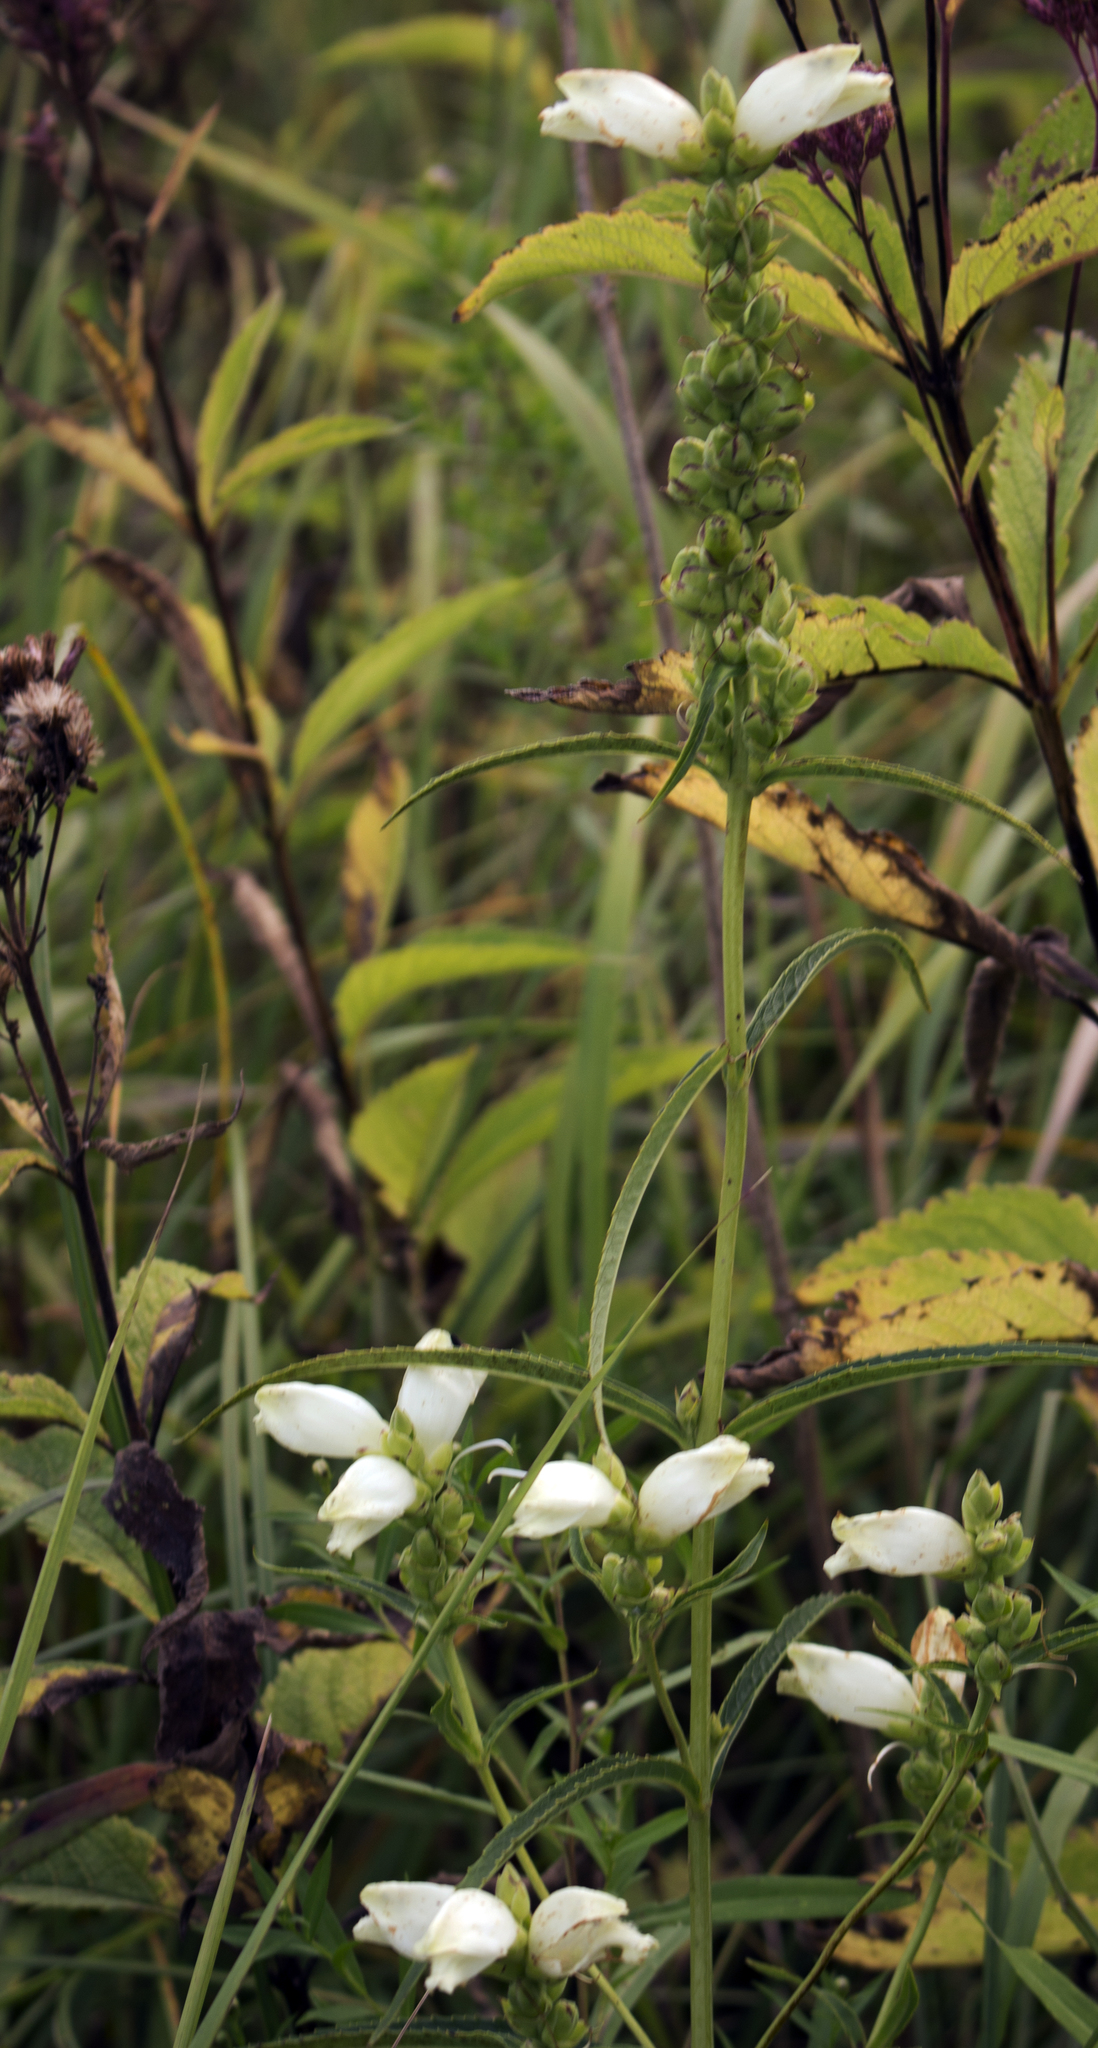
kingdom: Plantae
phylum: Tracheophyta
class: Magnoliopsida
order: Lamiales
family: Plantaginaceae
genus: Chelone
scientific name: Chelone glabra
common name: Snakehead
